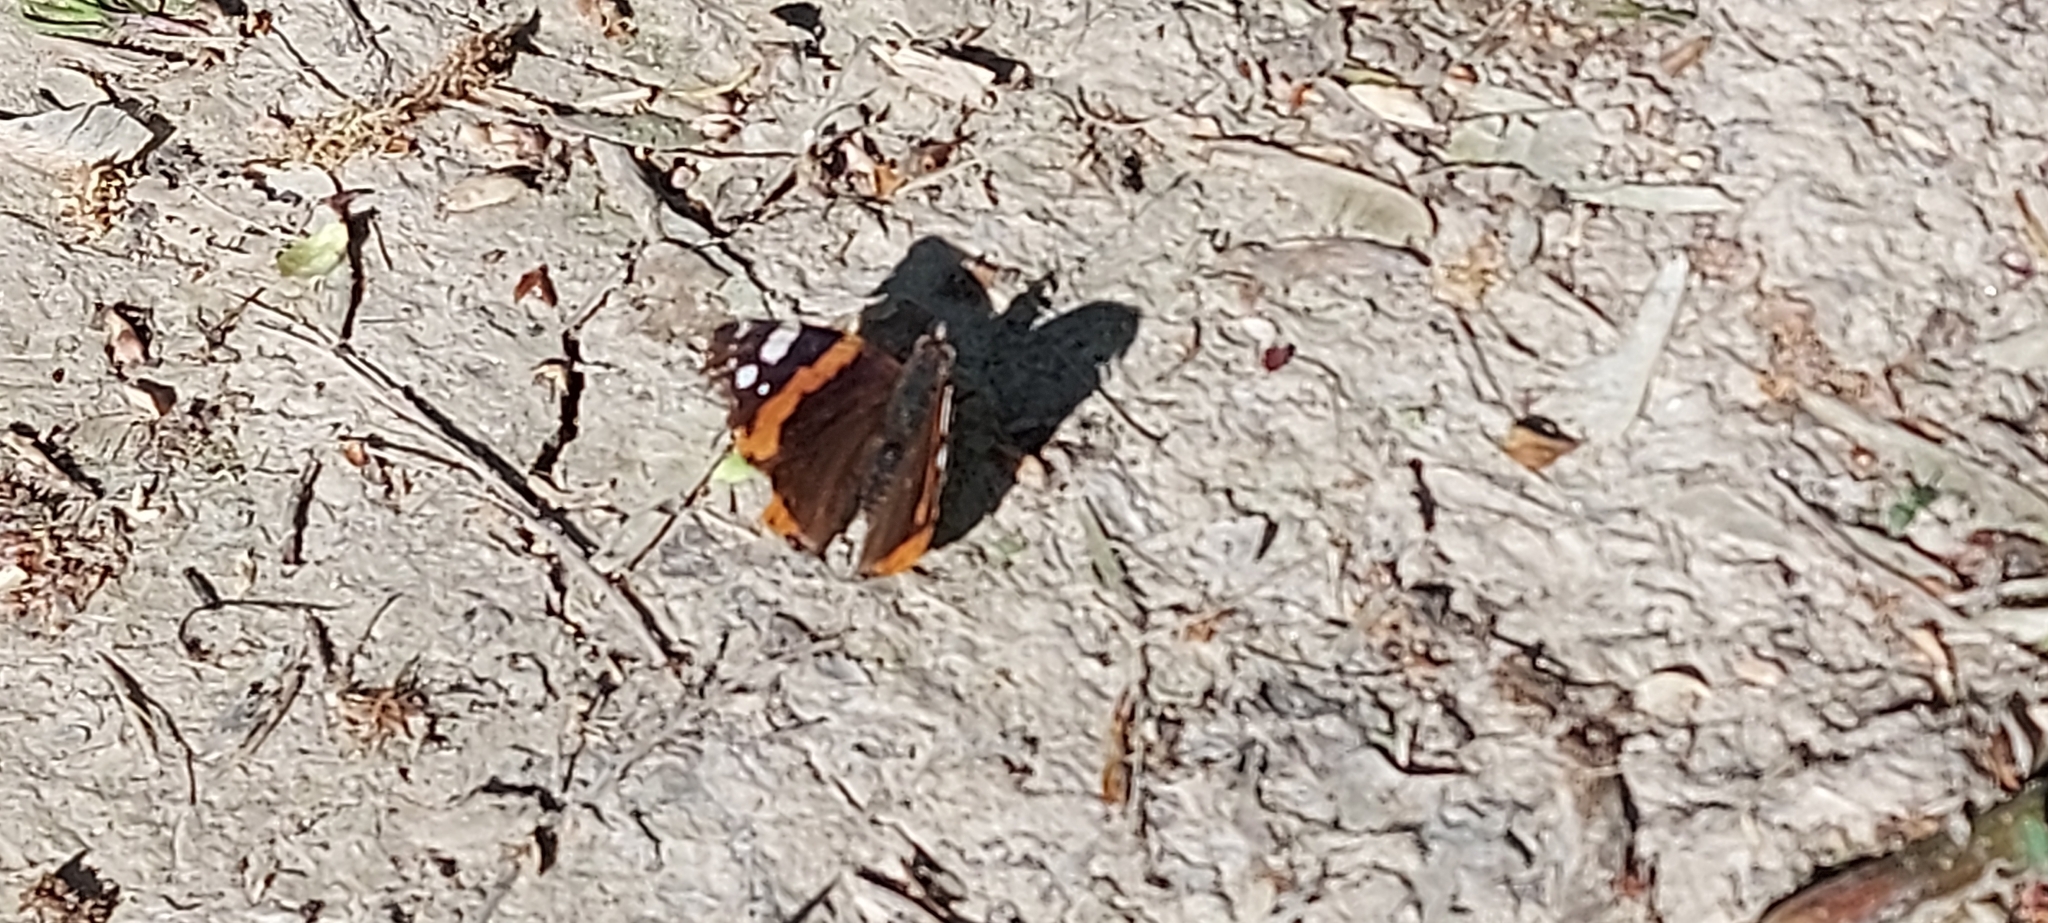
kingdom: Animalia
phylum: Arthropoda
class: Insecta
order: Lepidoptera
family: Nymphalidae
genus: Vanessa
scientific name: Vanessa atalanta
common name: Red admiral
